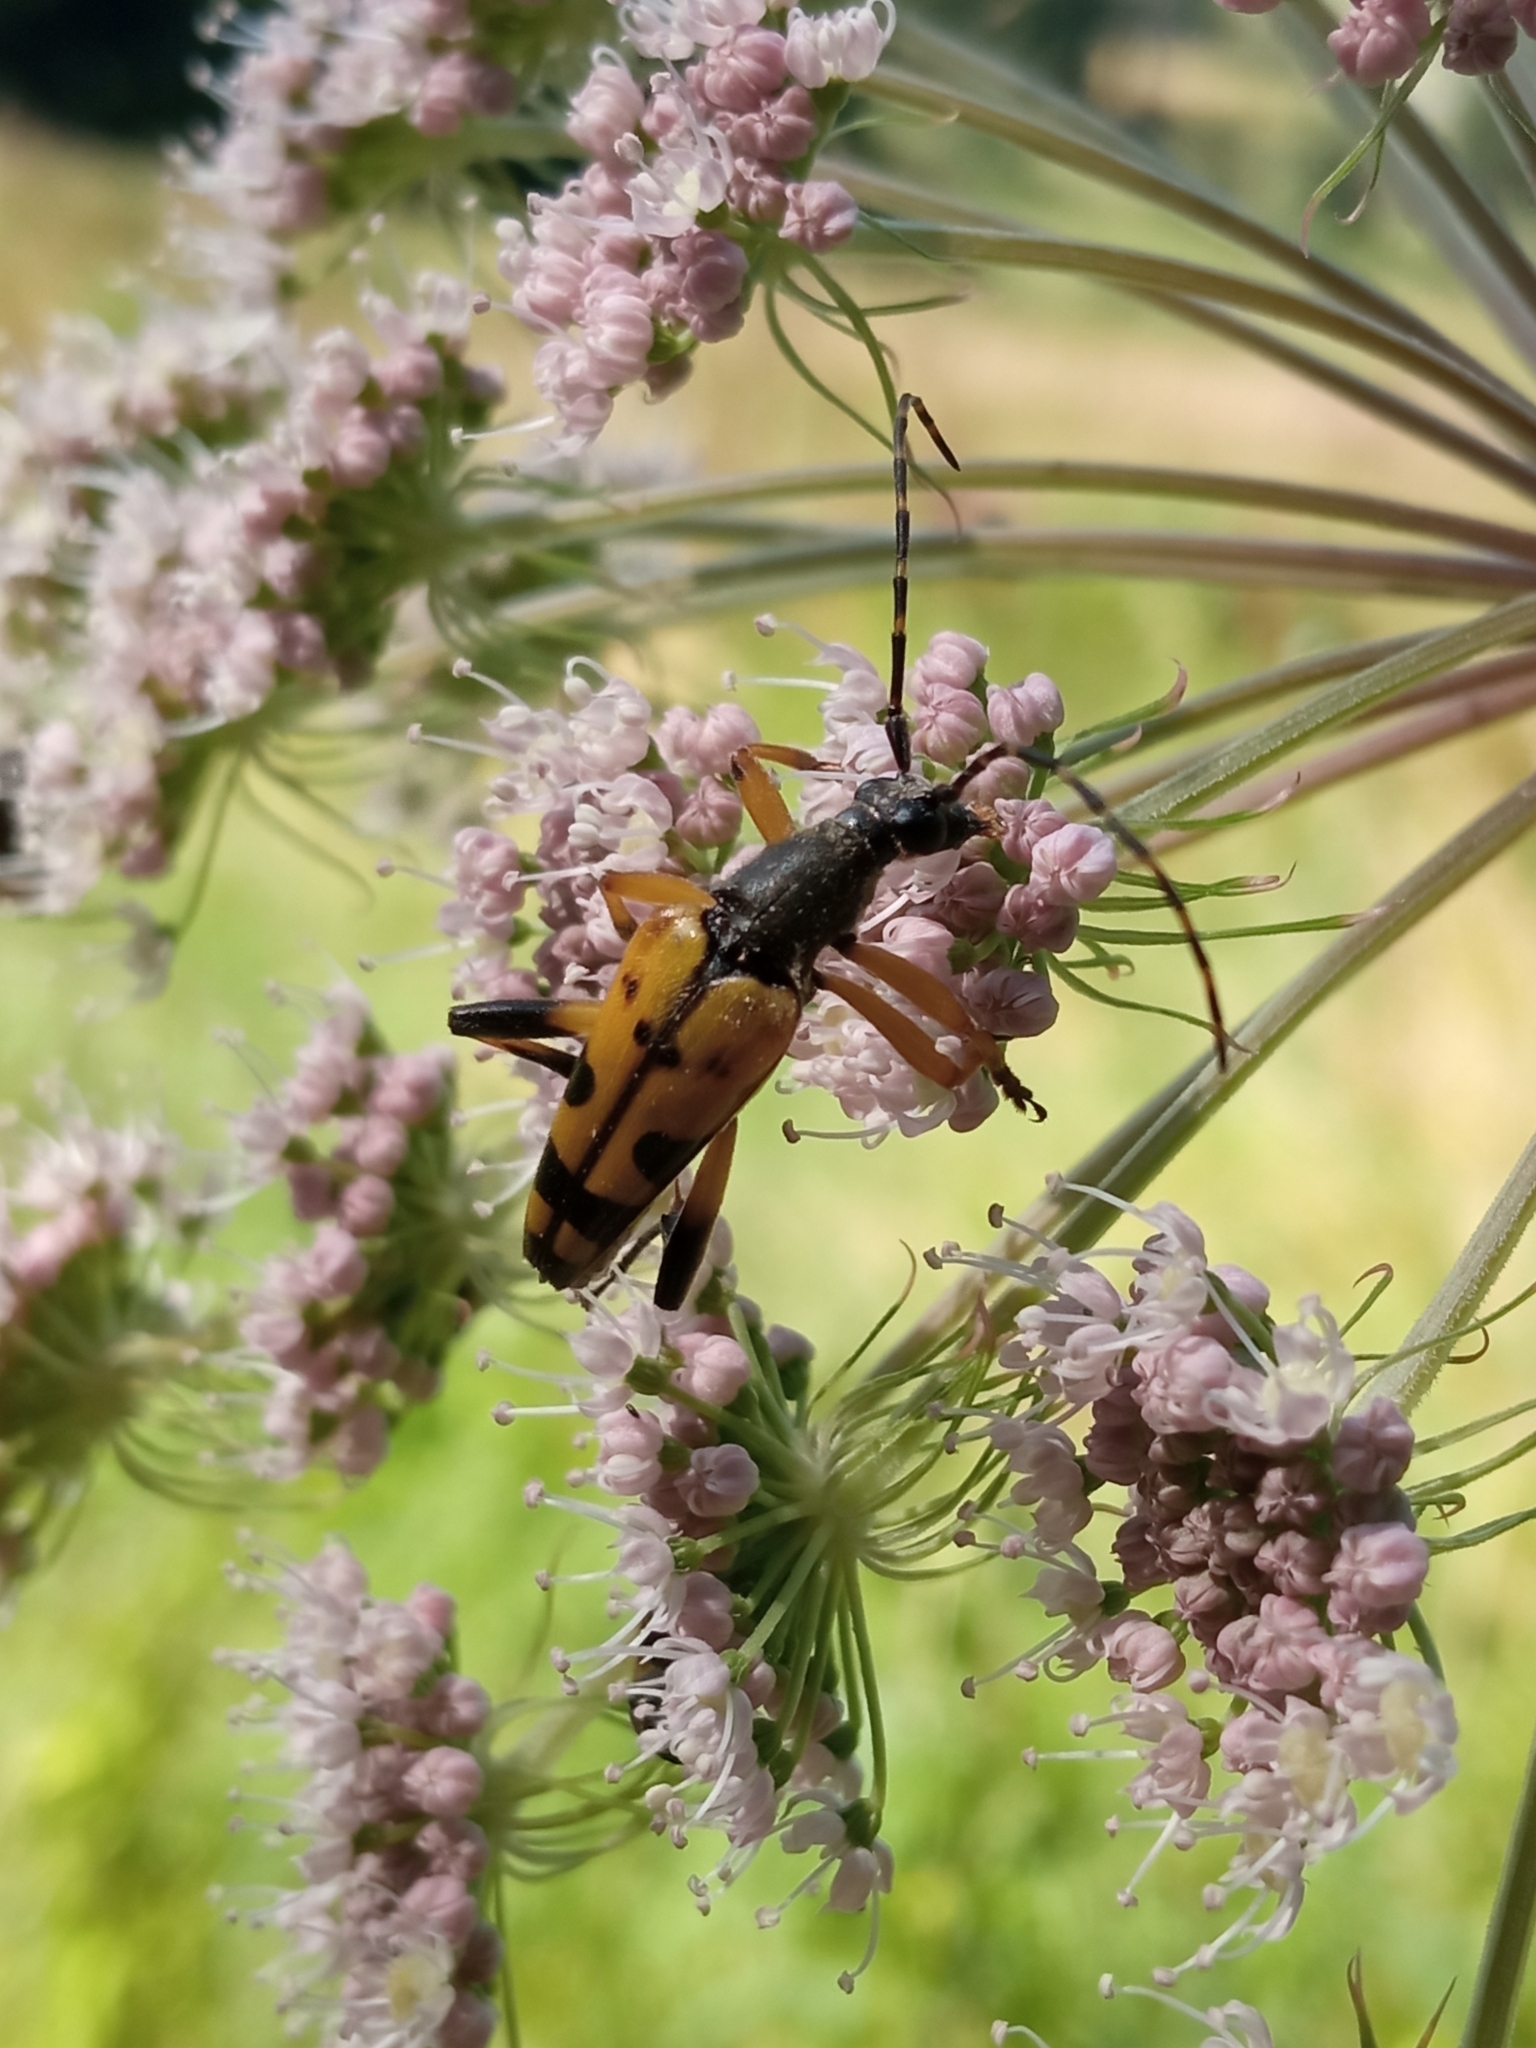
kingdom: Animalia
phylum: Arthropoda
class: Insecta
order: Coleoptera
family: Cerambycidae
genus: Rutpela
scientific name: Rutpela maculata
